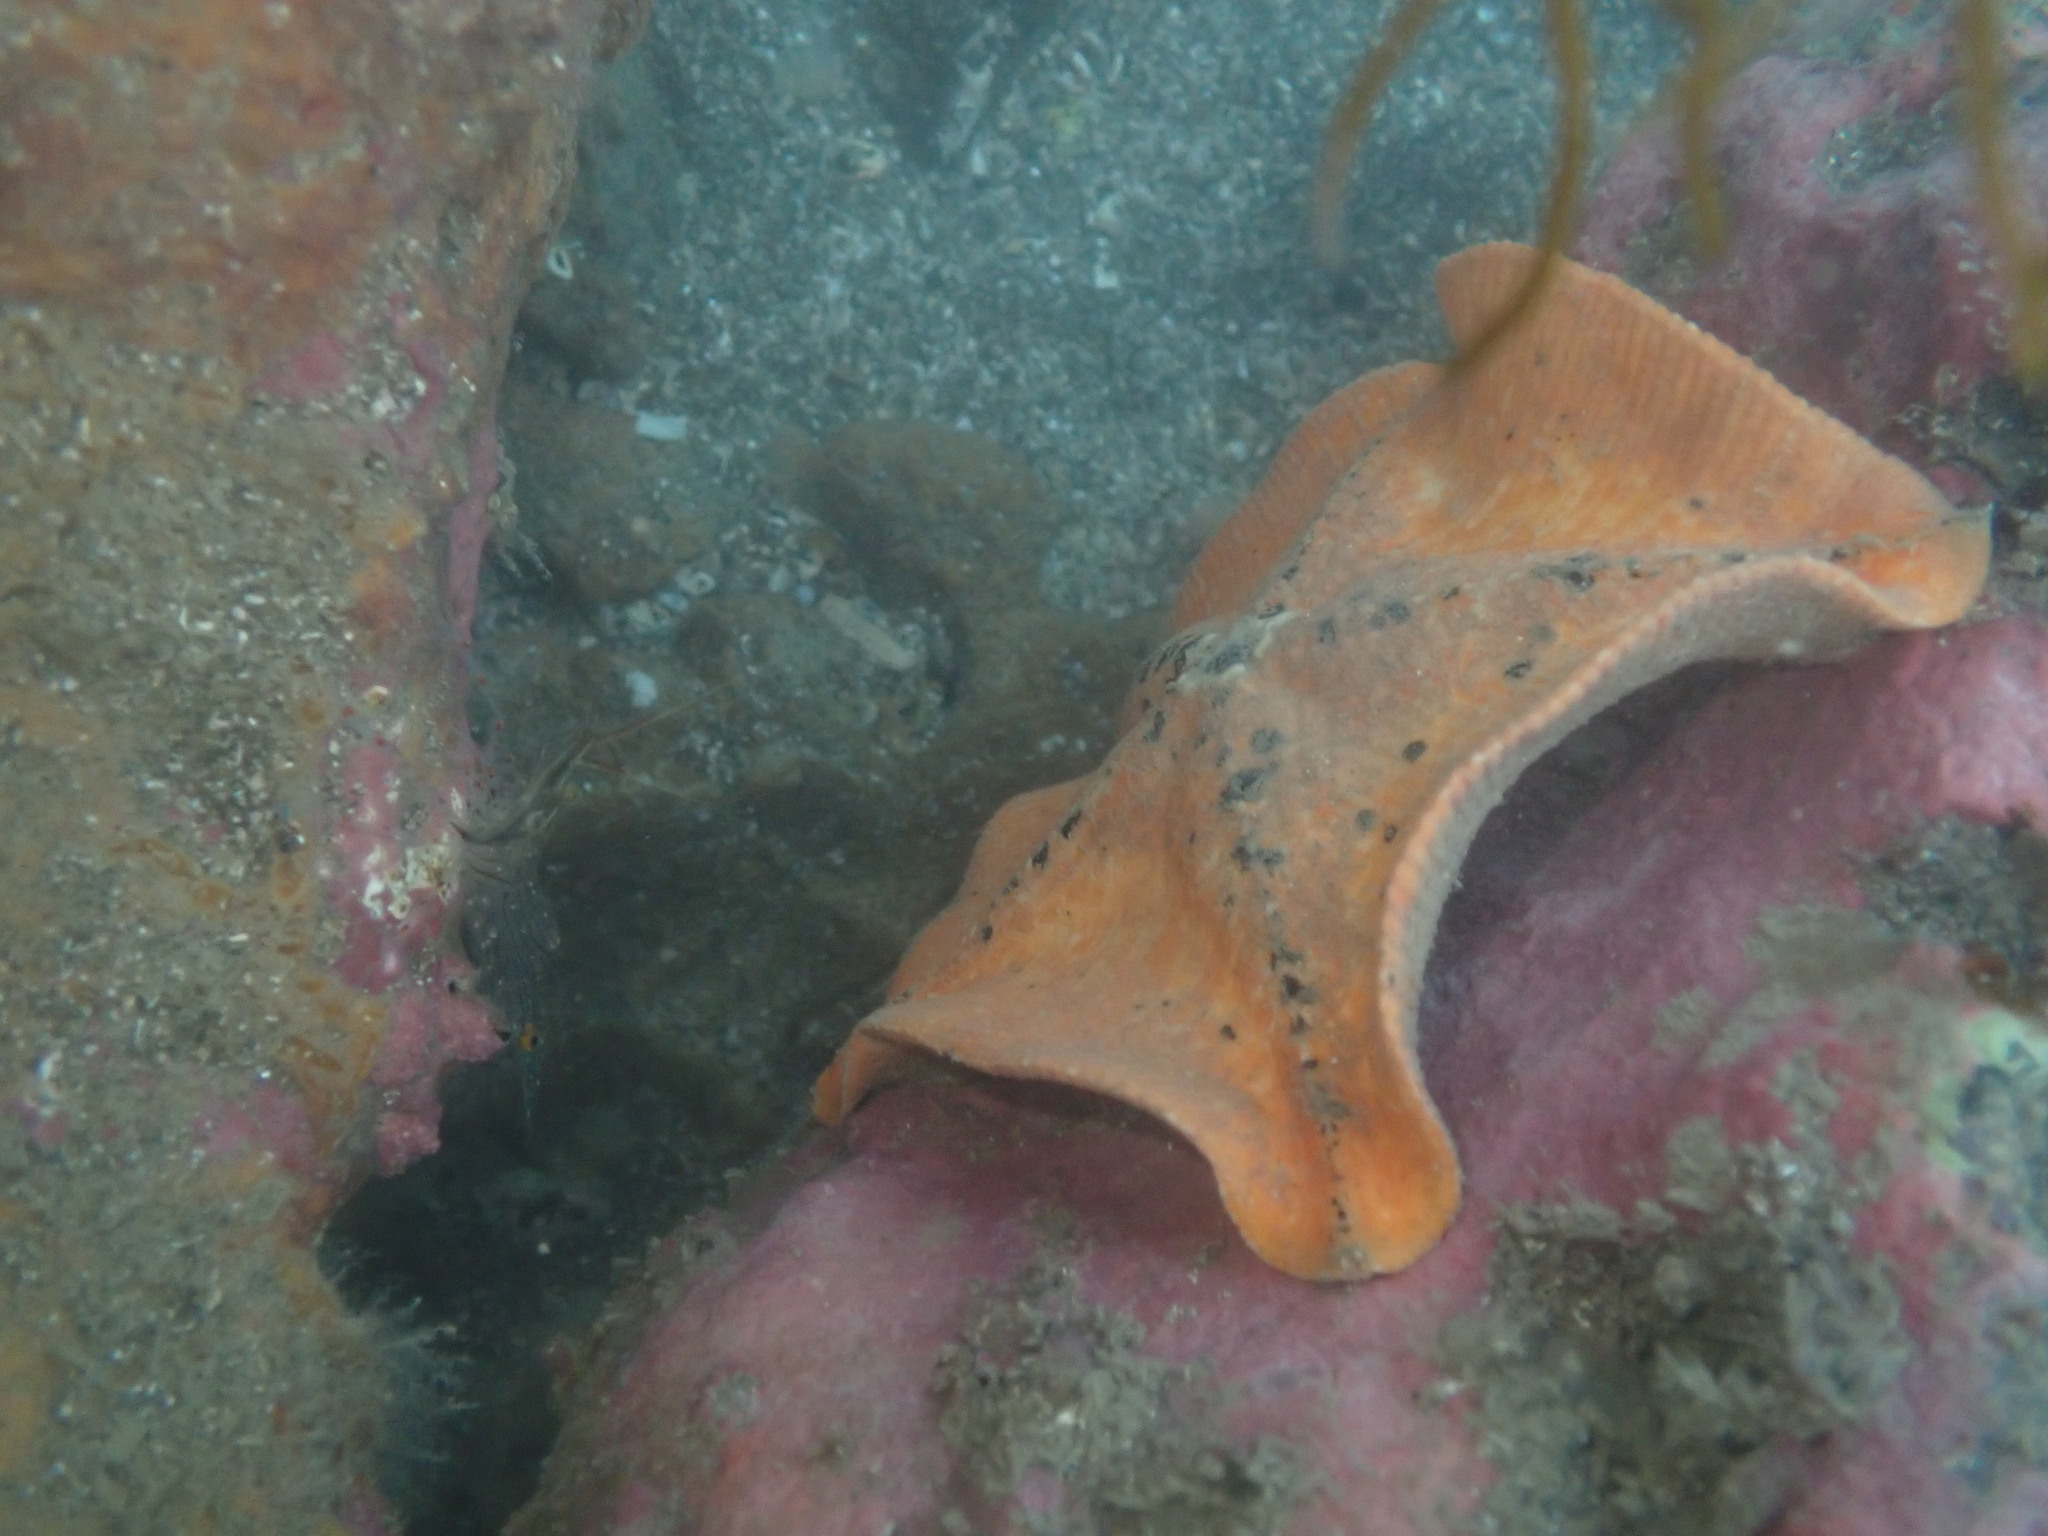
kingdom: Animalia
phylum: Arthropoda
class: Malacostraca
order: Decapoda
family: Palaemonidae
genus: Palaemon
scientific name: Palaemon affinis
